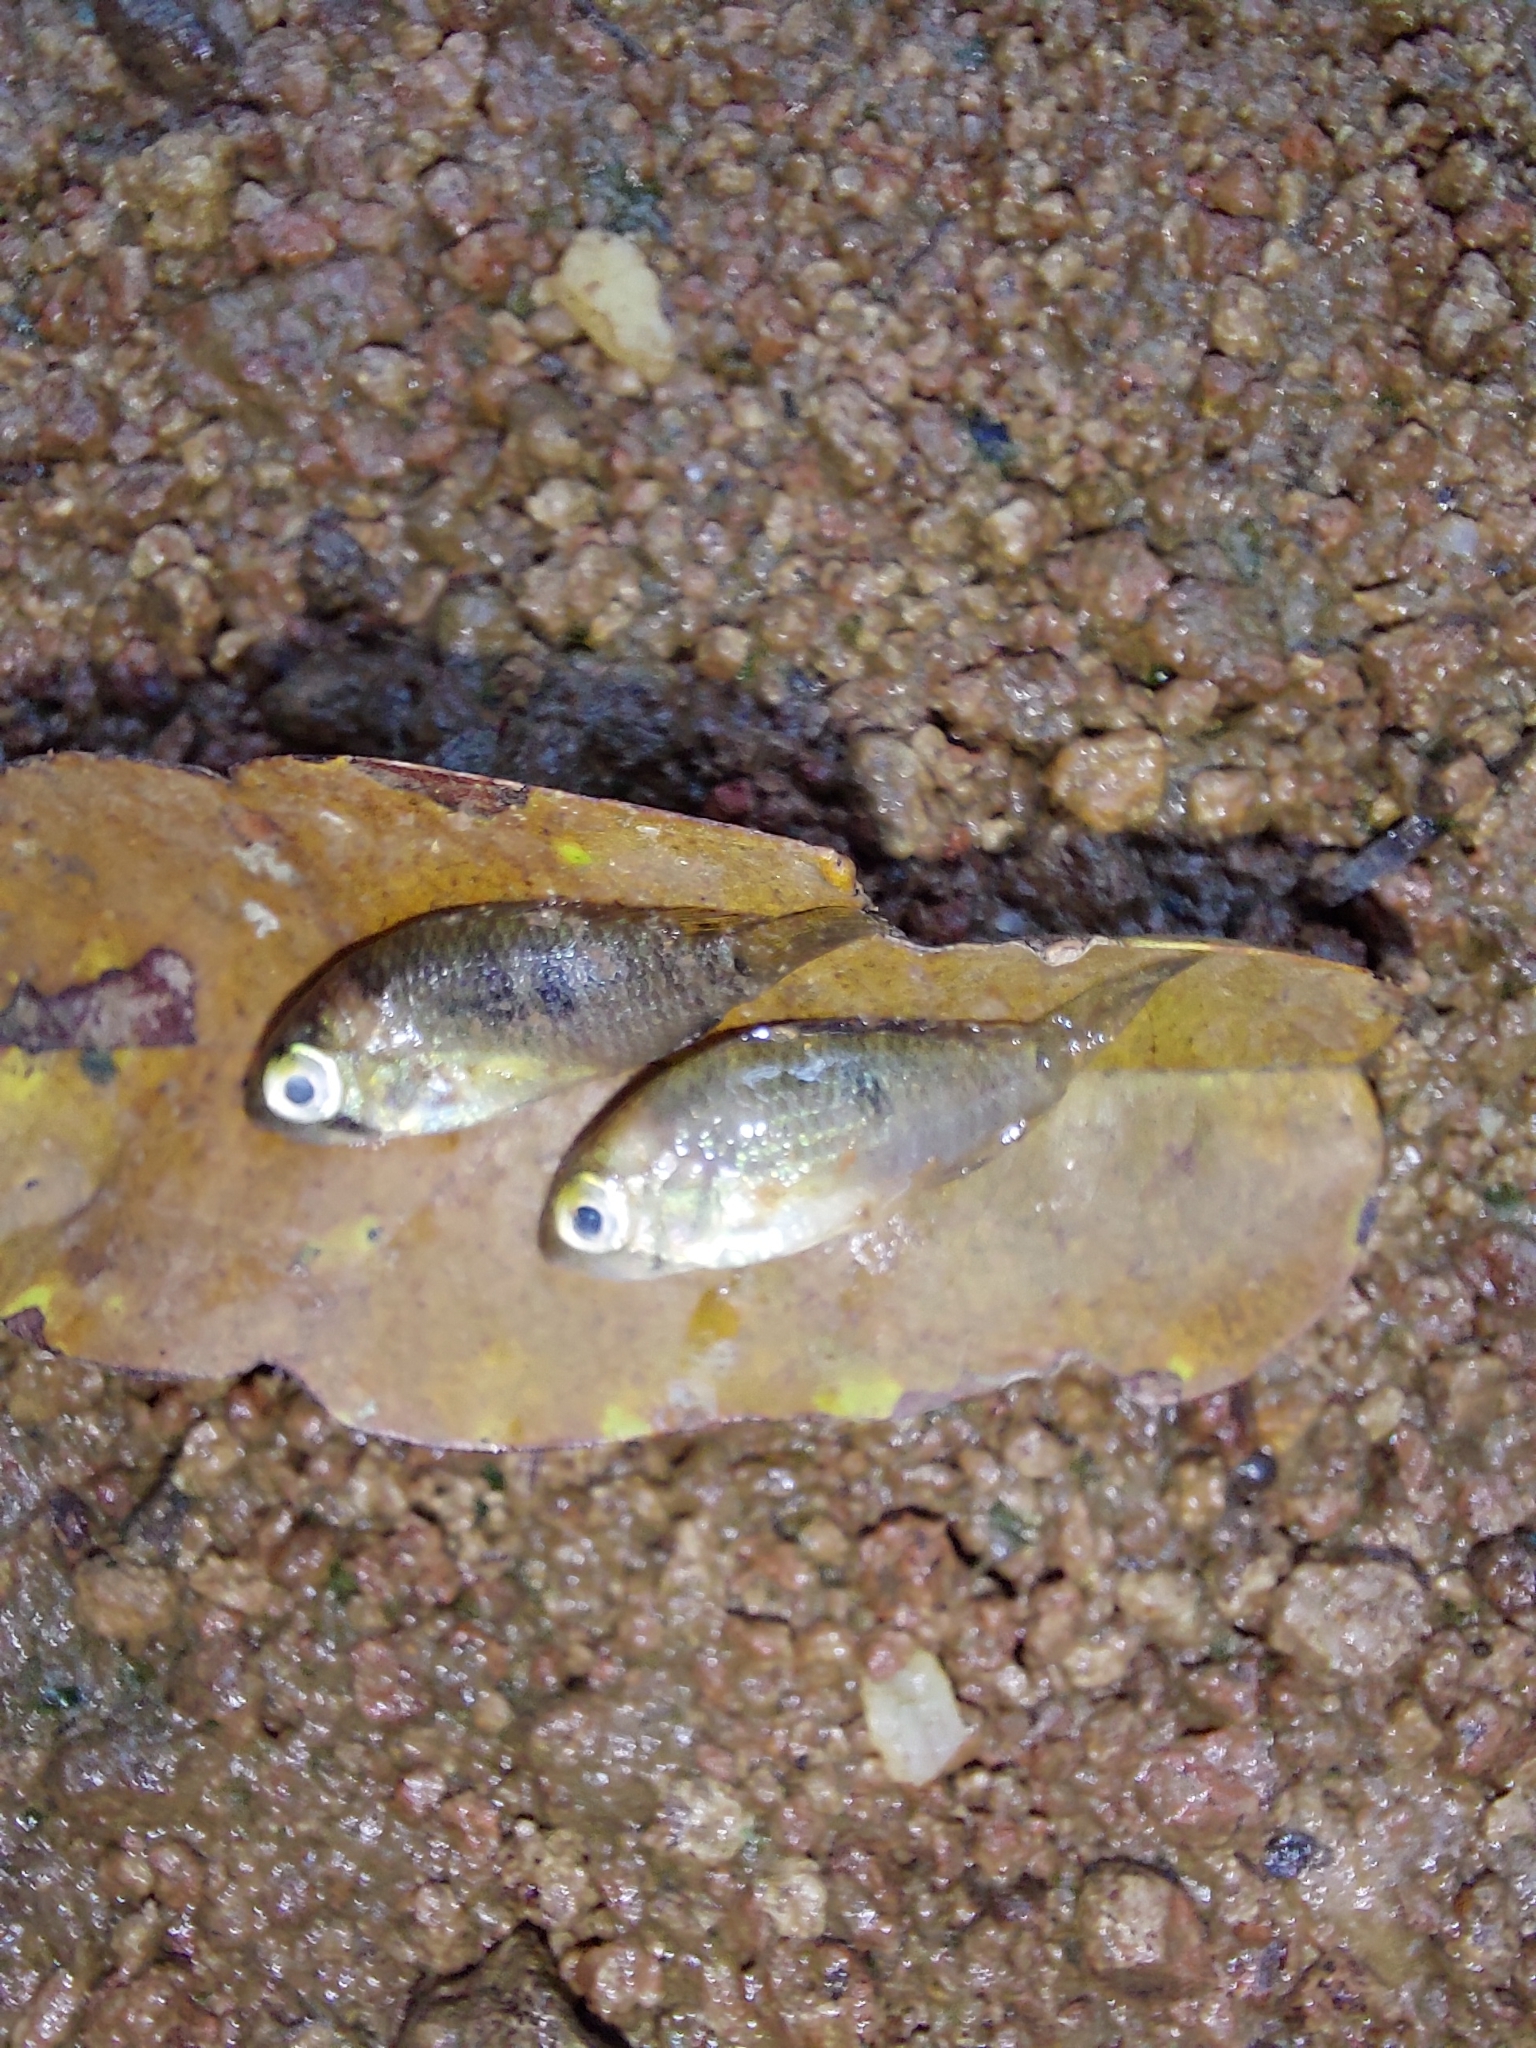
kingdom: Animalia
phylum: Chordata
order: Perciformes
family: Cichlidae
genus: Andinoacara
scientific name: Andinoacara coeruleopunctatus
